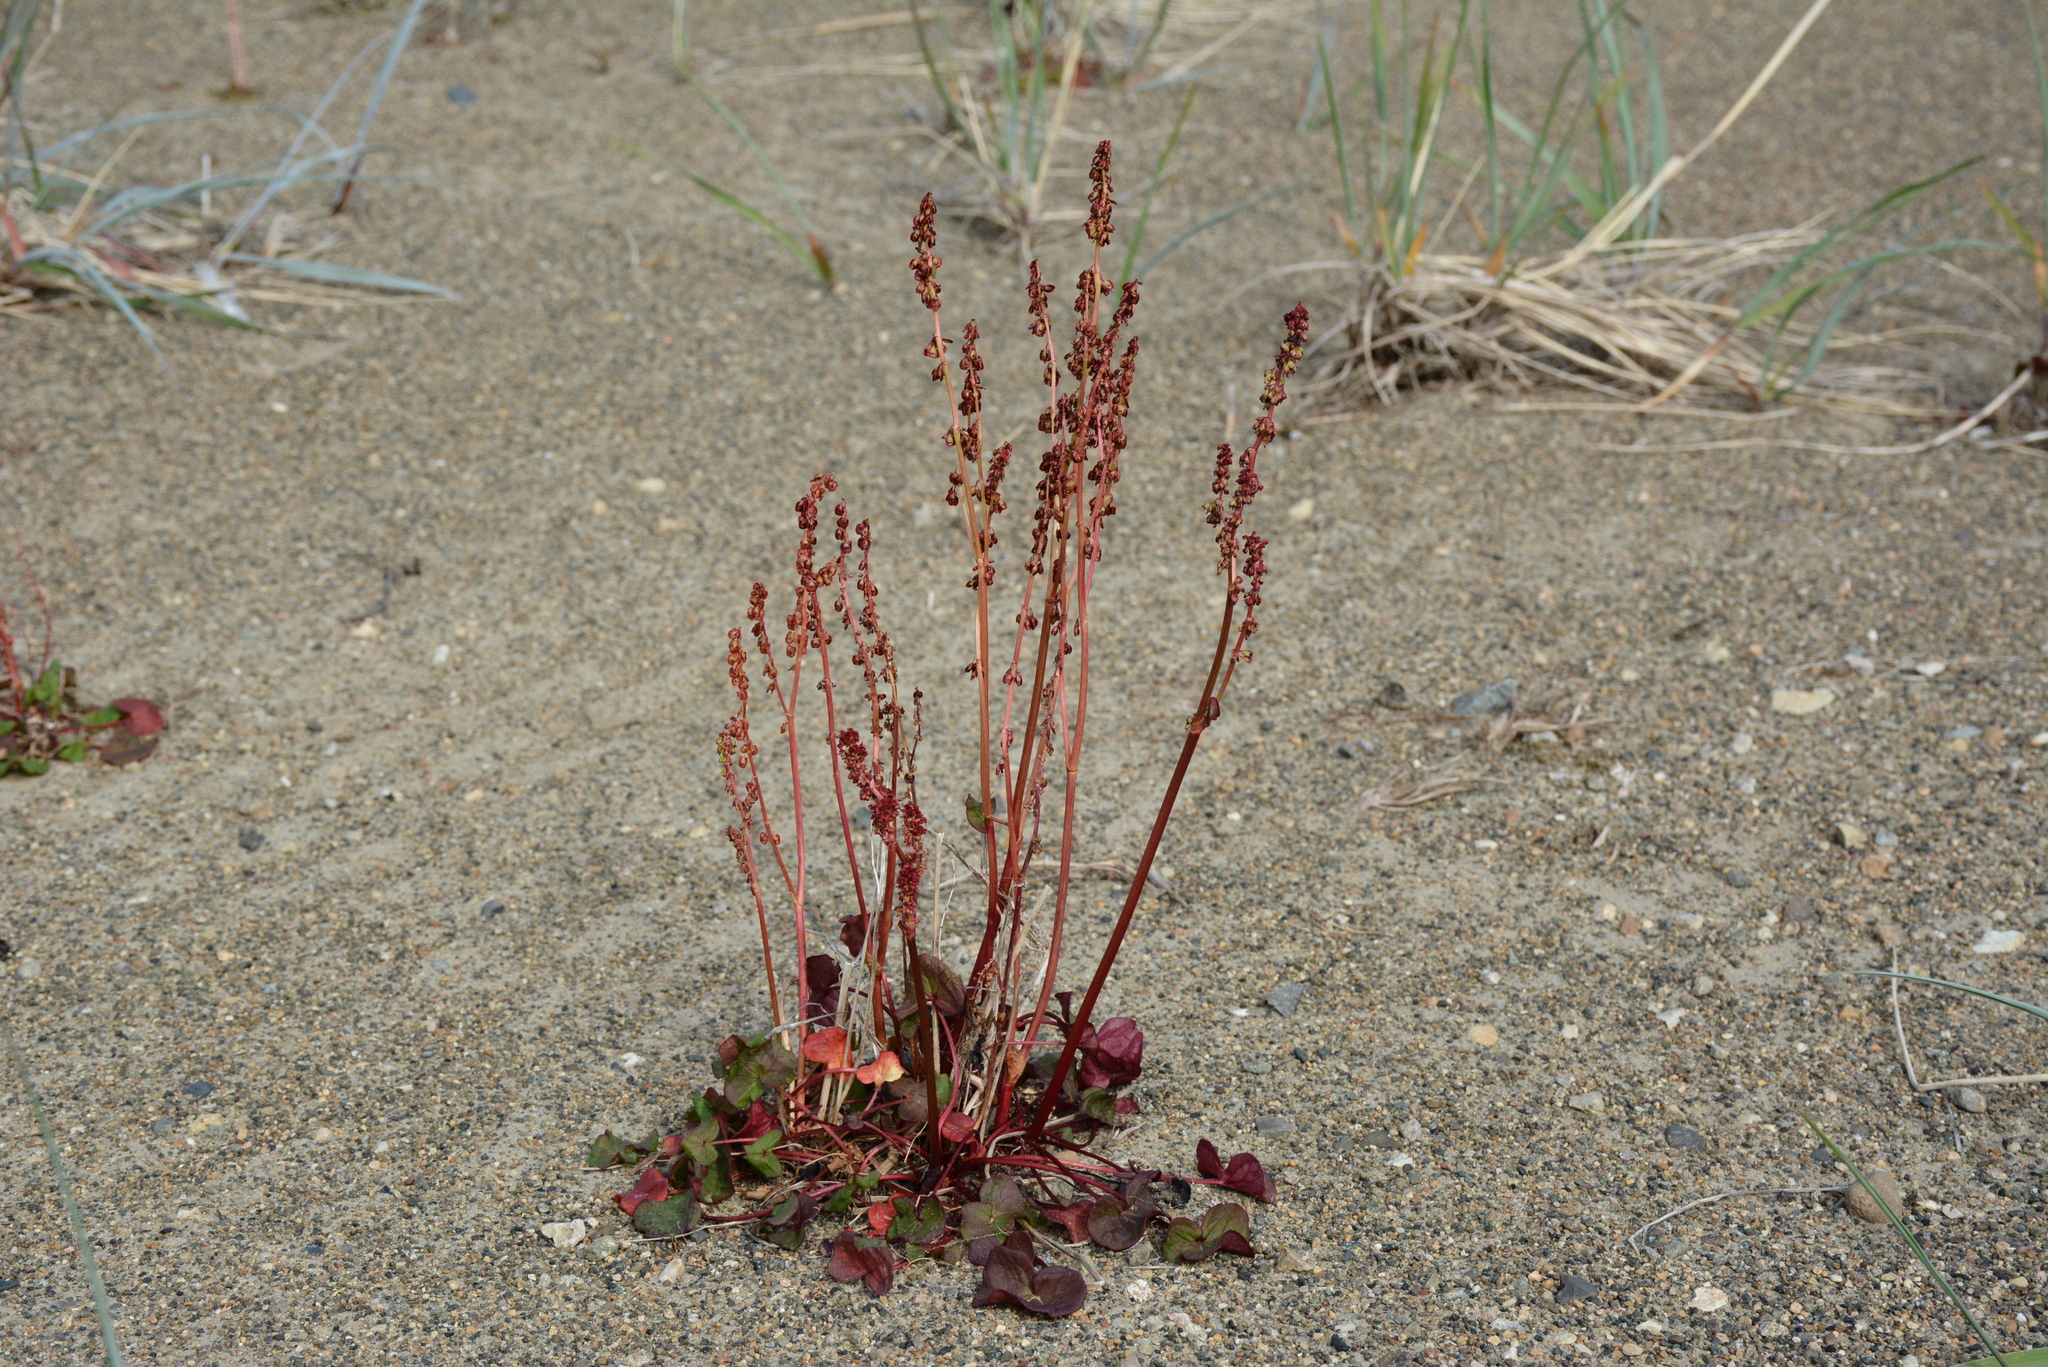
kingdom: Plantae
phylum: Tracheophyta
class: Magnoliopsida
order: Caryophyllales
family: Polygonaceae
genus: Oxyria
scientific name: Oxyria digyna
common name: Alpine mountain-sorrel
